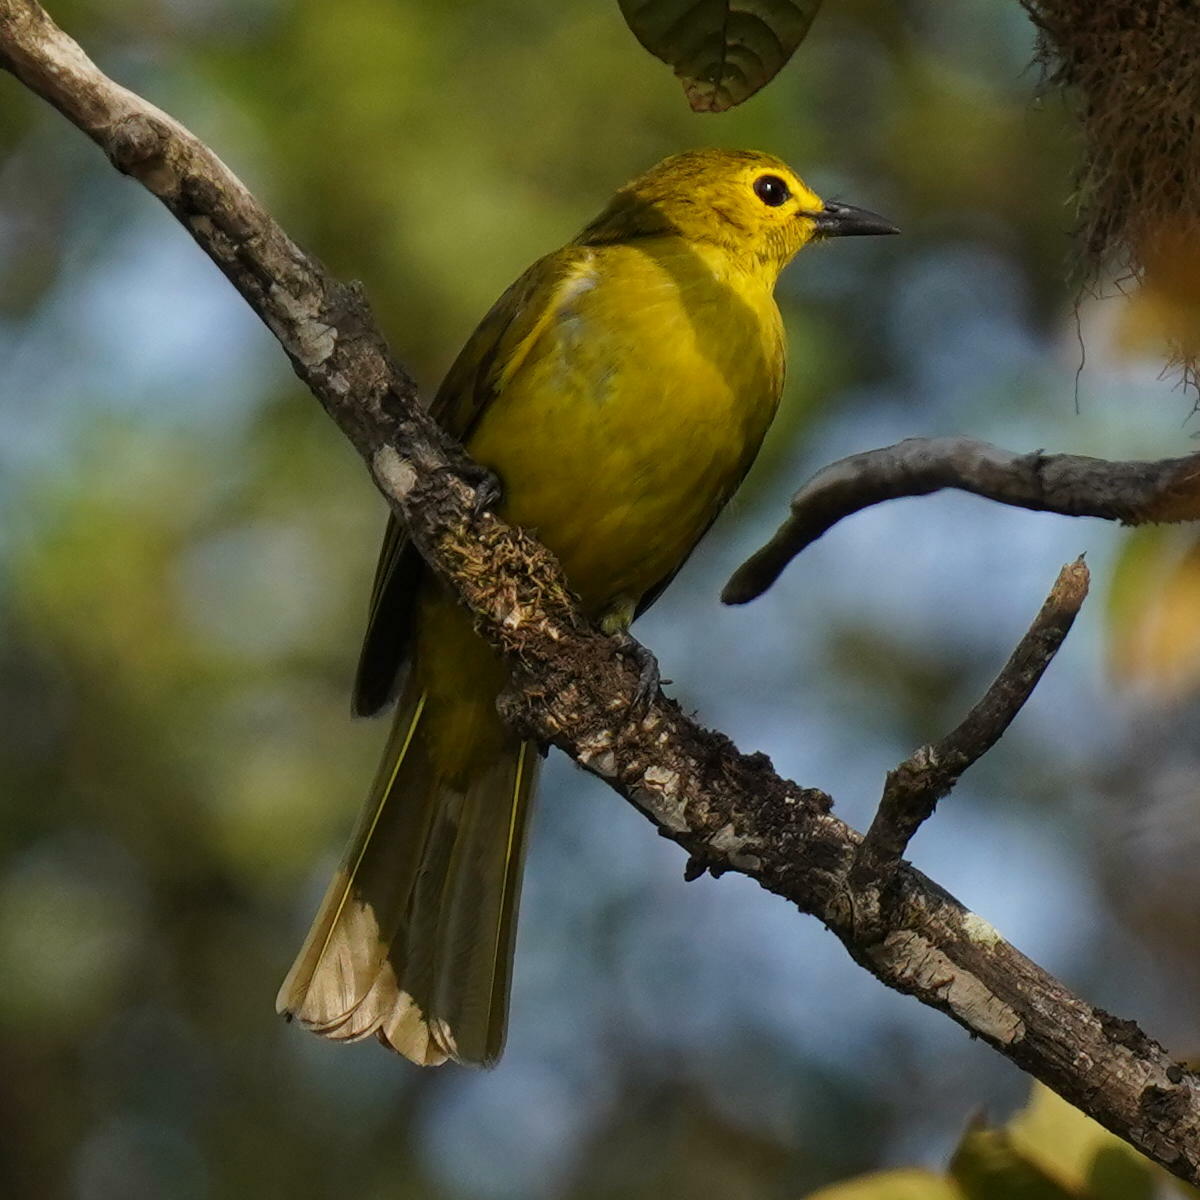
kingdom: Animalia
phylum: Chordata
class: Aves
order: Passeriformes
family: Pycnonotidae
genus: Acritillas
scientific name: Acritillas indica
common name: Yellow-browed bulbul
